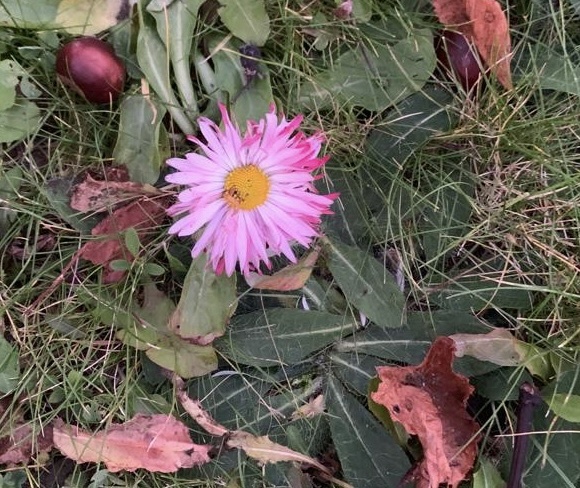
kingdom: Plantae
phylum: Tracheophyta
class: Magnoliopsida
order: Asterales
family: Asteraceae
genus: Bellis
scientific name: Bellis perennis
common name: Lawndaisy
